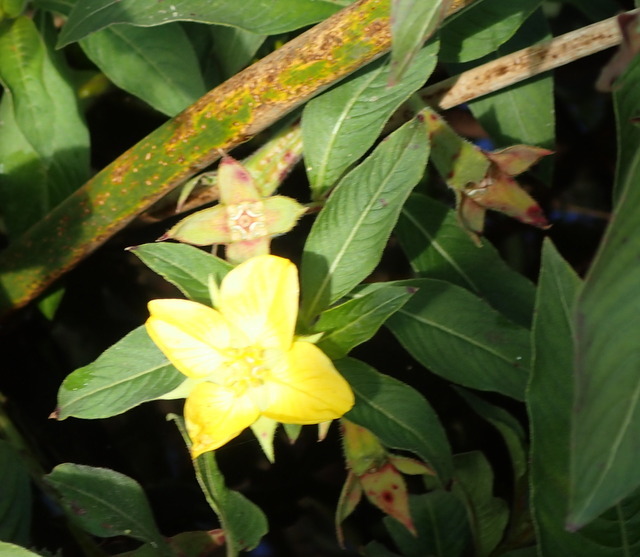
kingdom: Plantae
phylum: Tracheophyta
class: Magnoliopsida
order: Myrtales
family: Onagraceae
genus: Ludwigia
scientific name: Ludwigia peruviana
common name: Peruvian primrose-willow
